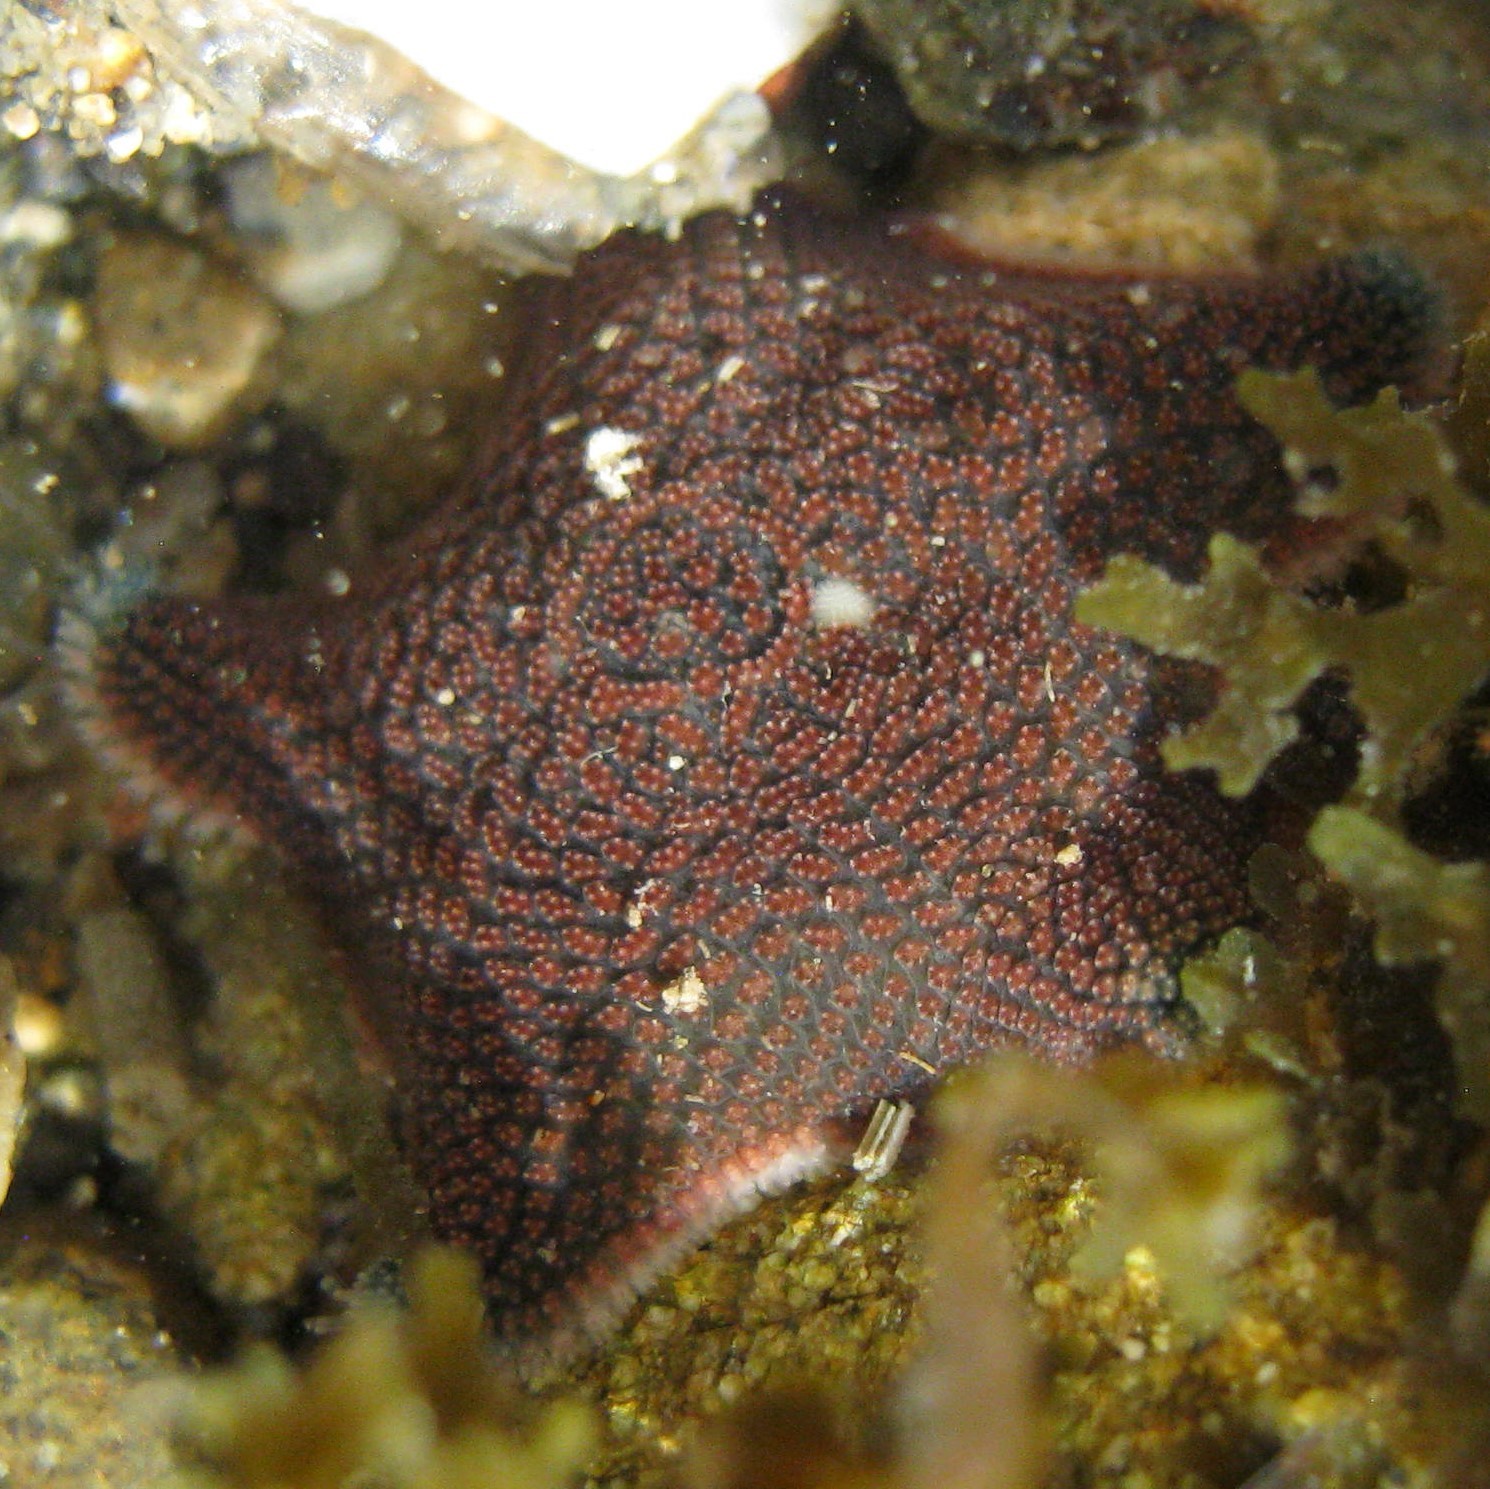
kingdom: Animalia
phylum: Echinodermata
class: Asteroidea
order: Valvatida
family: Asterinidae
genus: Patiriella
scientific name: Patiriella regularis
